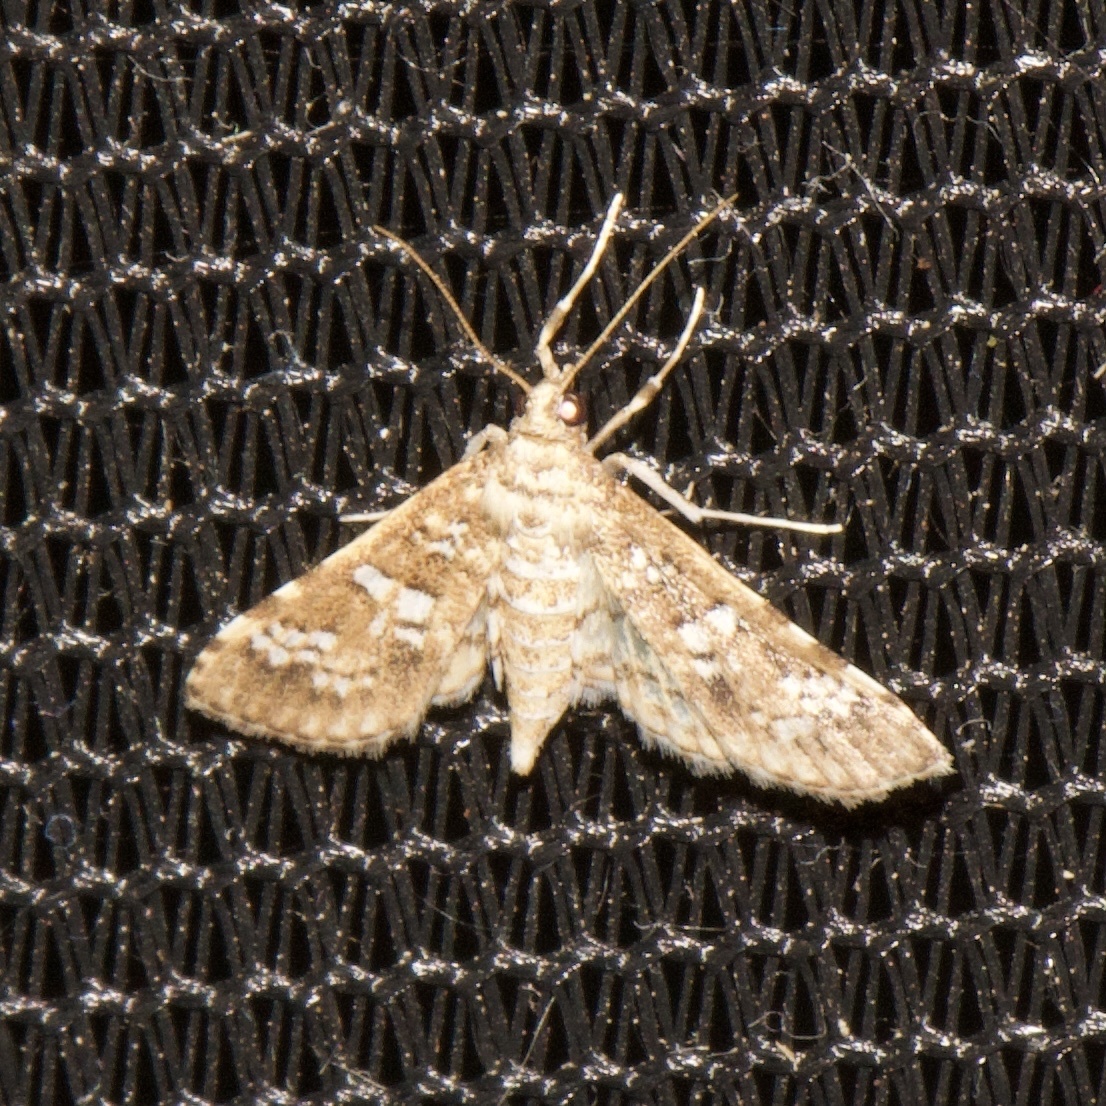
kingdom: Animalia
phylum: Arthropoda
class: Insecta
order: Lepidoptera
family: Crambidae
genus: Samea
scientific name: Samea multiplicalis
